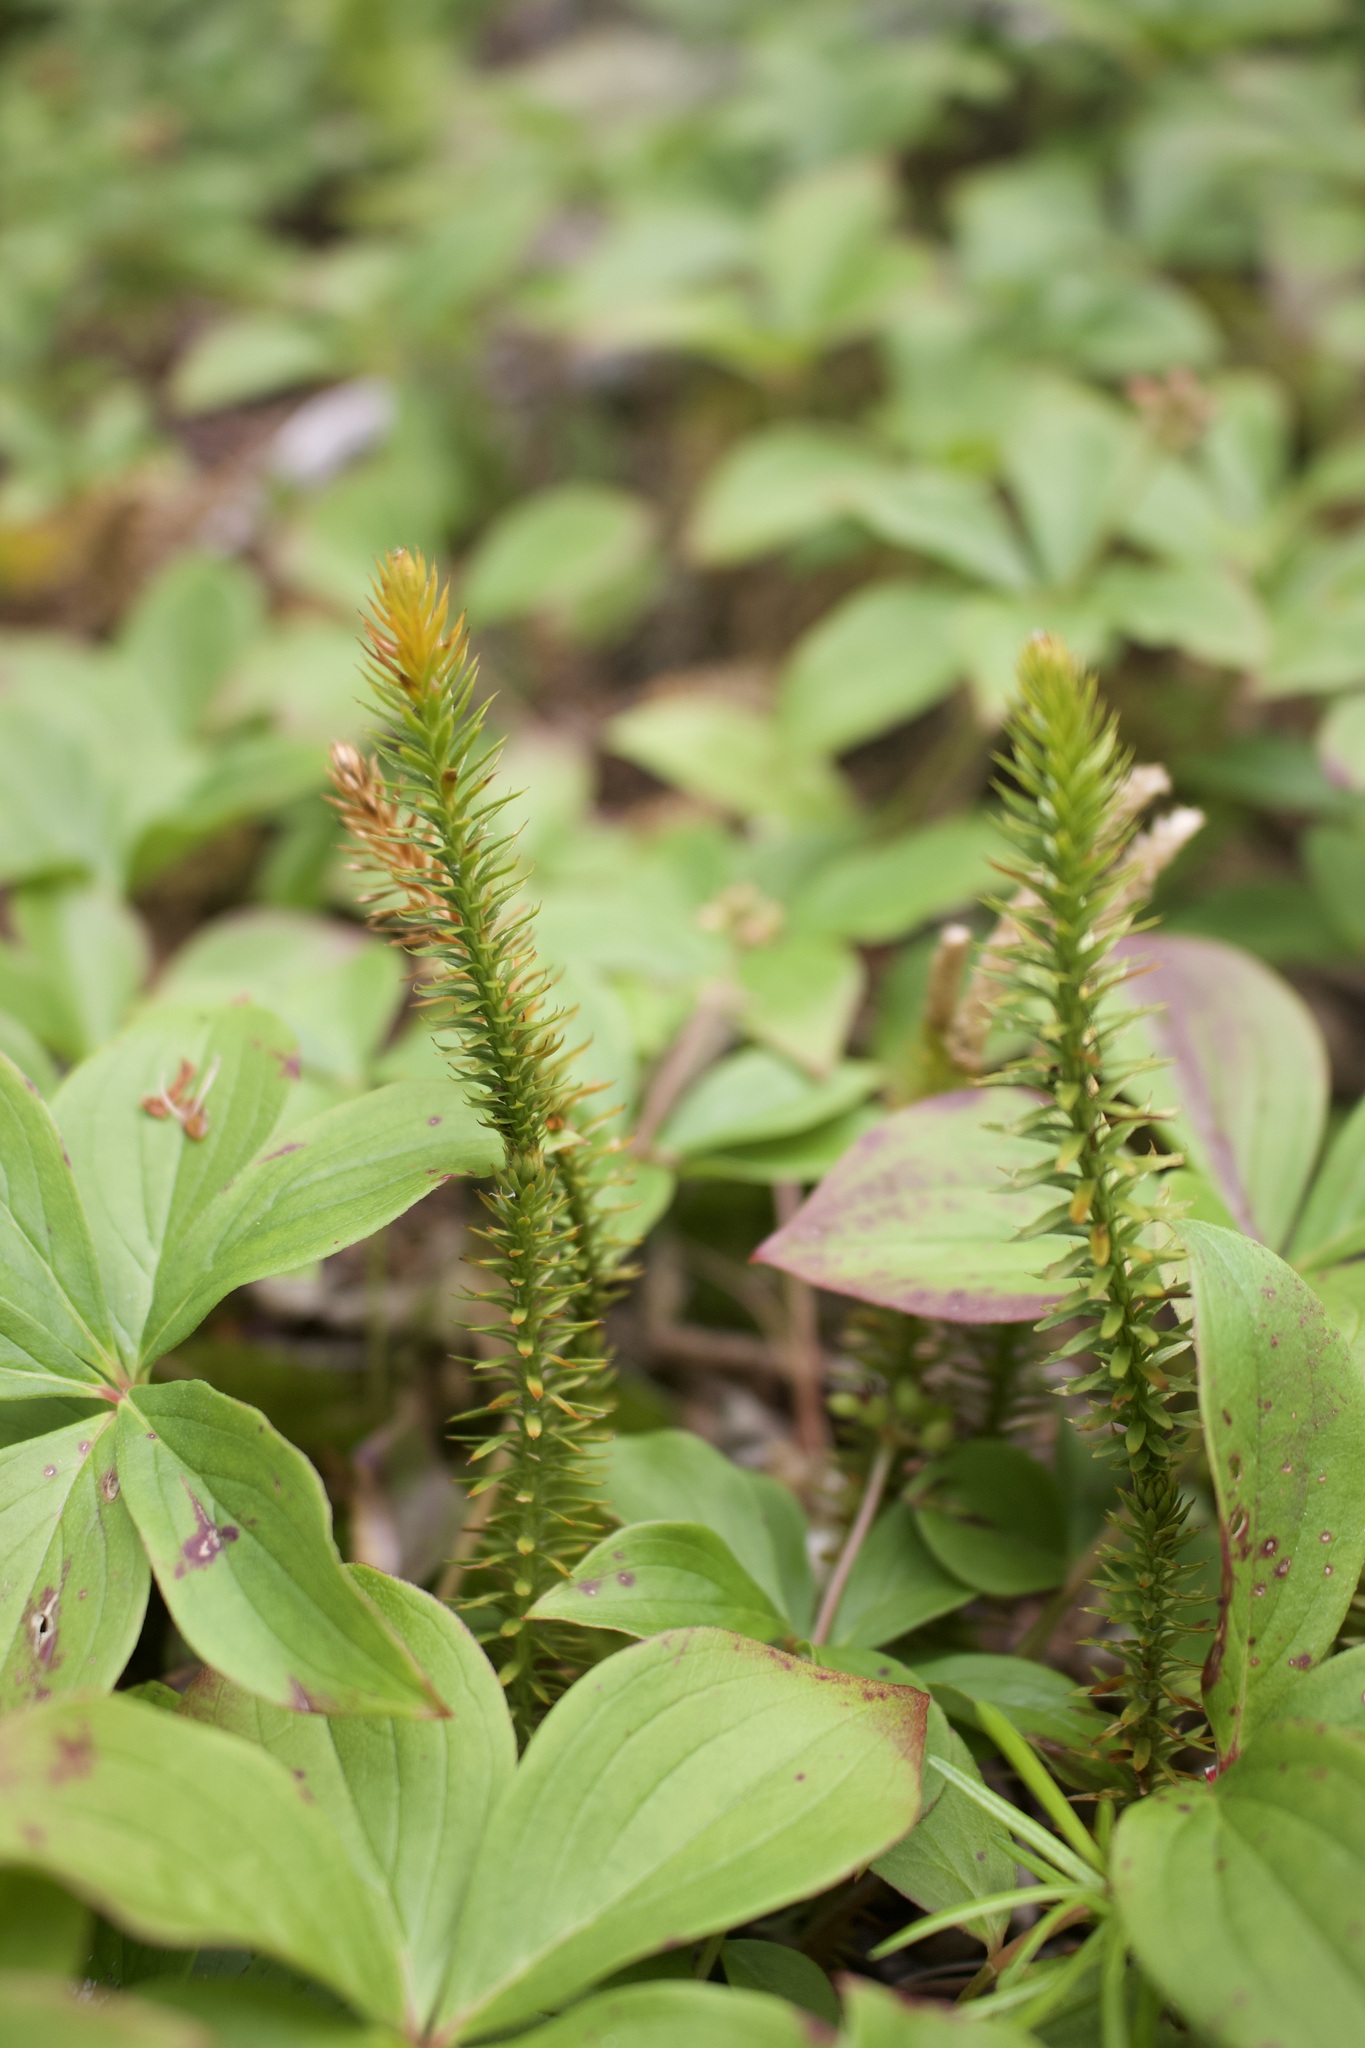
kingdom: Plantae
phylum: Tracheophyta
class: Lycopodiopsida
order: Lycopodiales
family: Lycopodiaceae
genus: Spinulum
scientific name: Spinulum annotinum
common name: Interrupted club-moss
